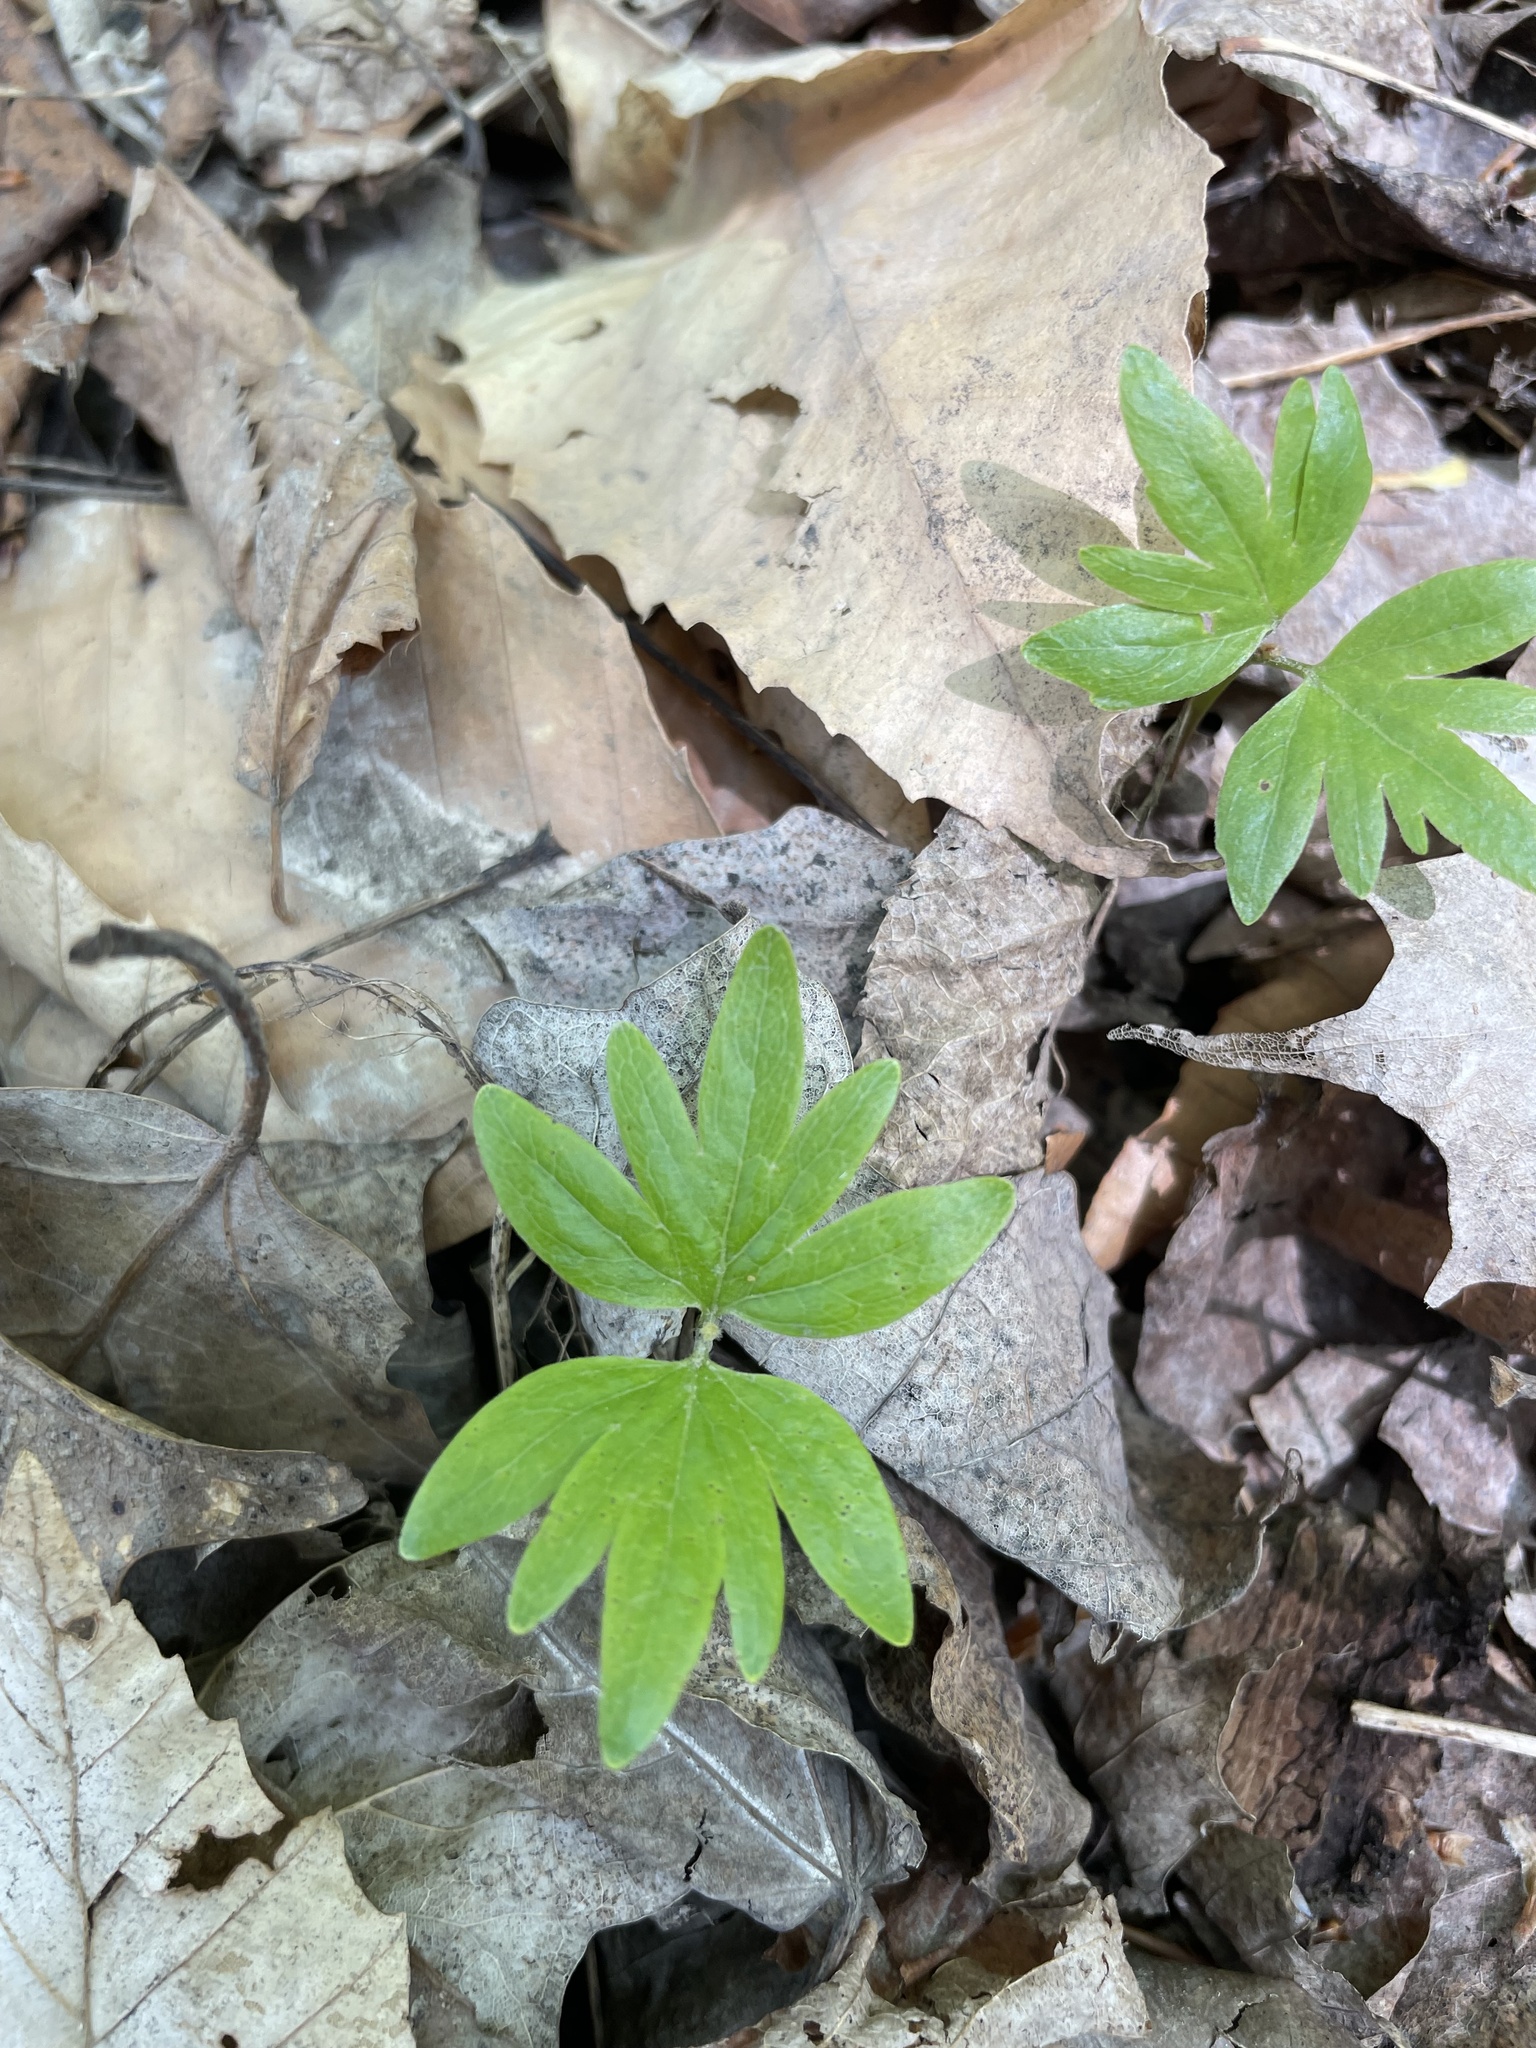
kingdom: Plantae
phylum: Tracheophyta
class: Magnoliopsida
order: Malvales
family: Malvaceae
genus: Tilia
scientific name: Tilia americana
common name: Basswood
